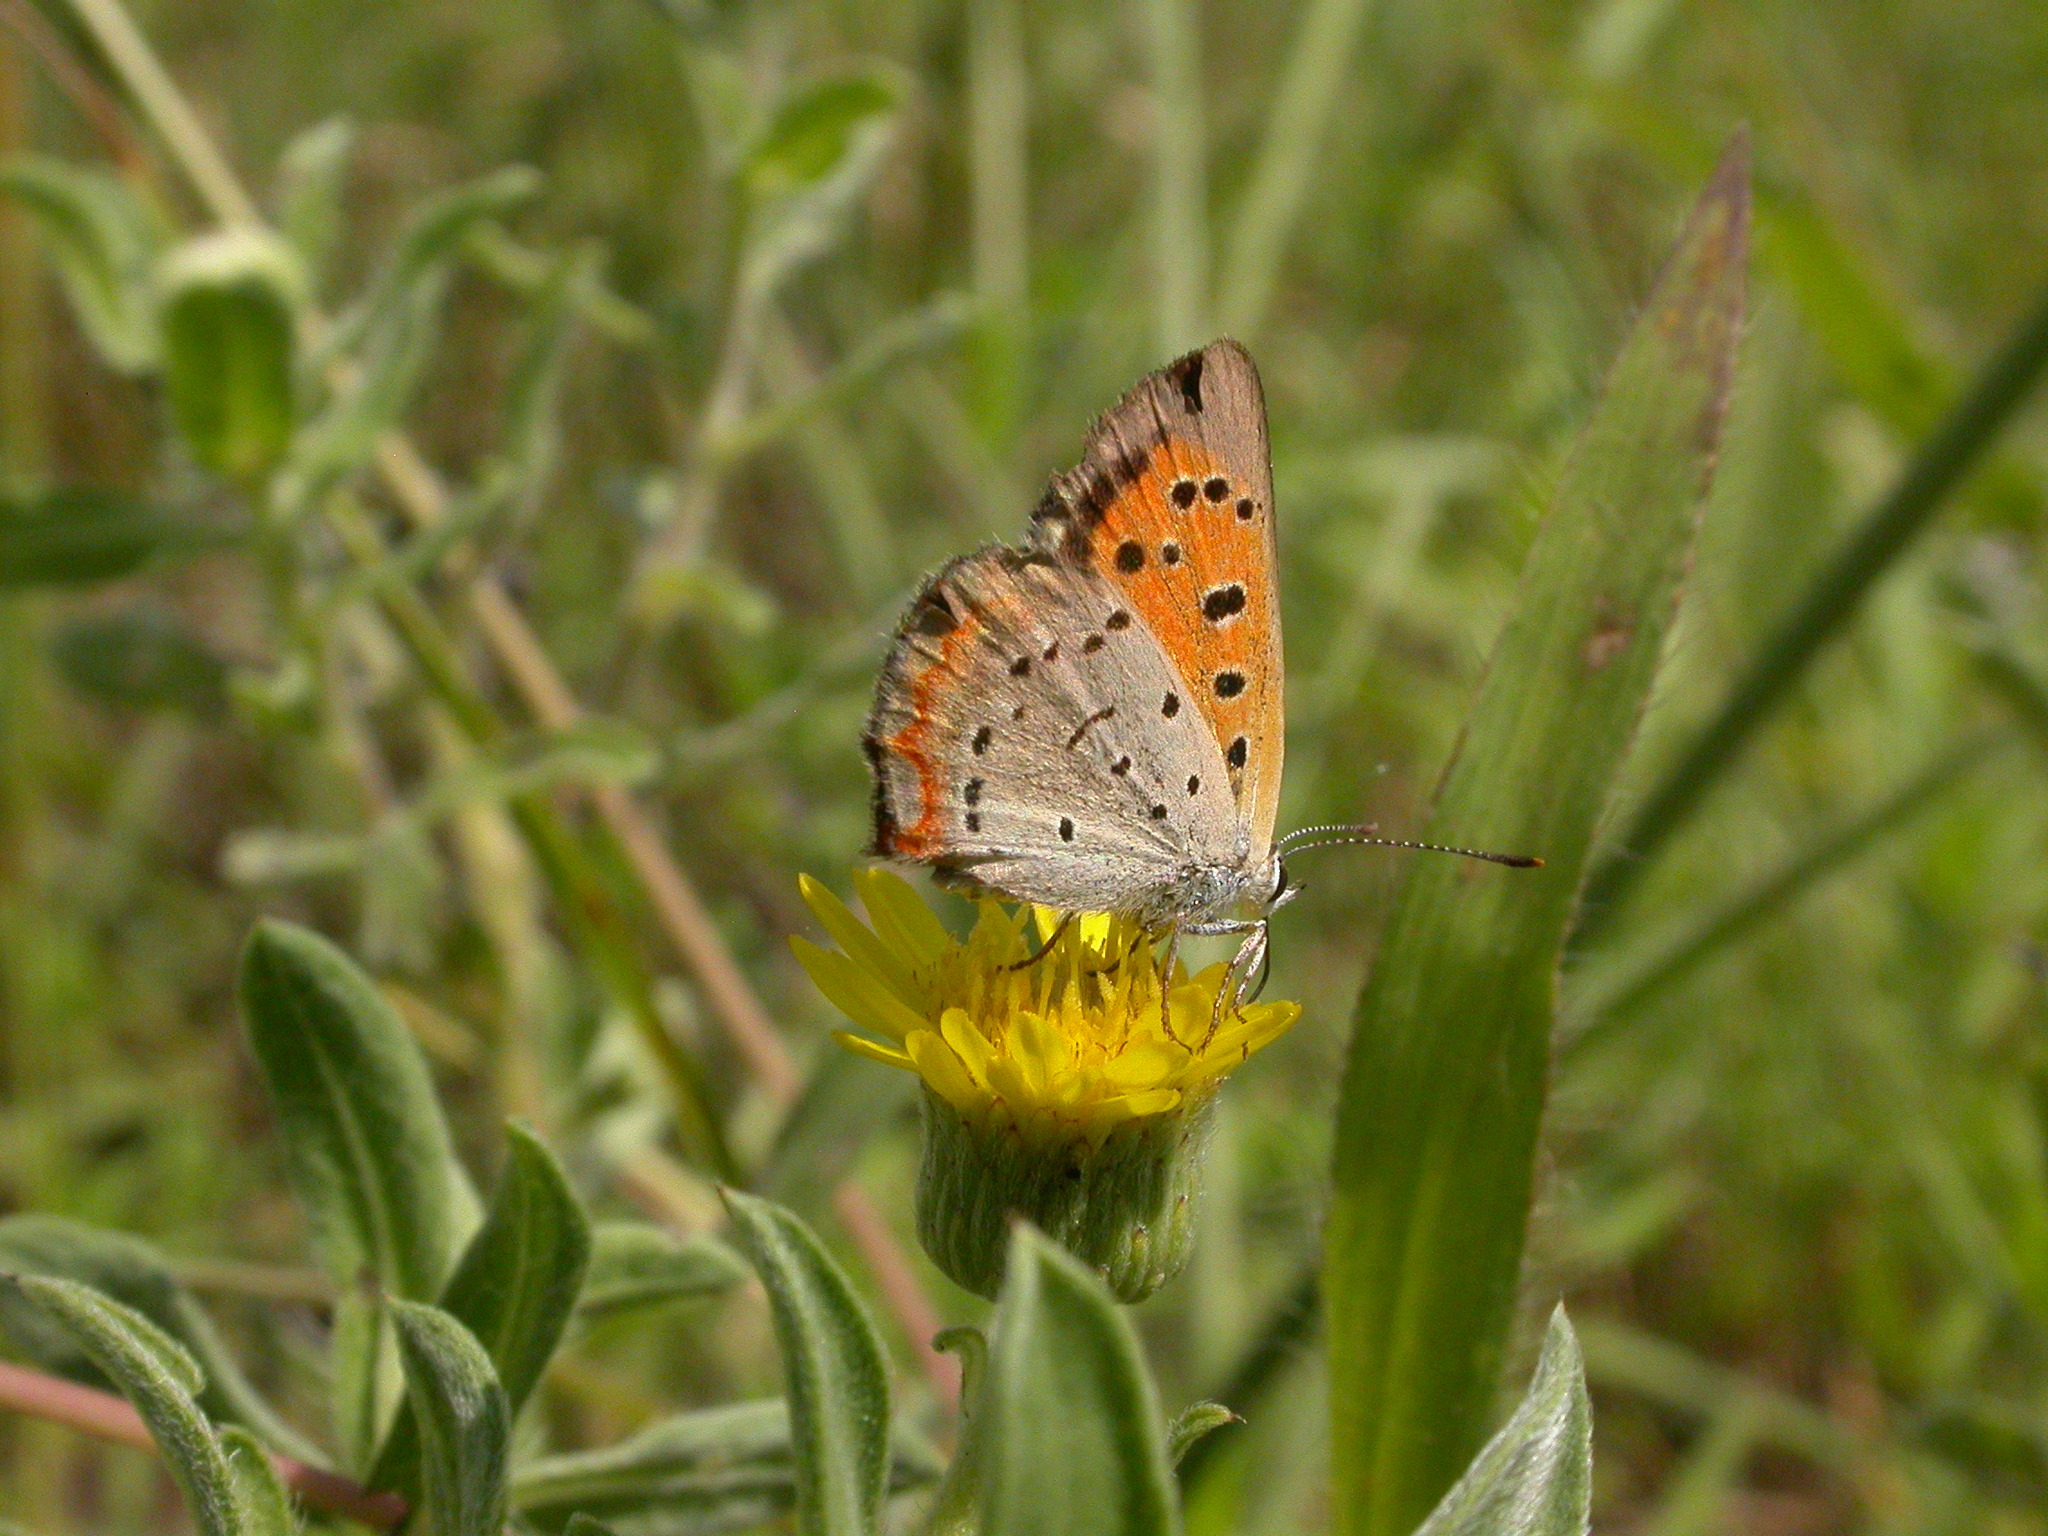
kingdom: Animalia
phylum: Arthropoda
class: Insecta
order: Lepidoptera
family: Lycaenidae
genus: Lycaena
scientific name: Lycaena hypophlaeas
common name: American copper
